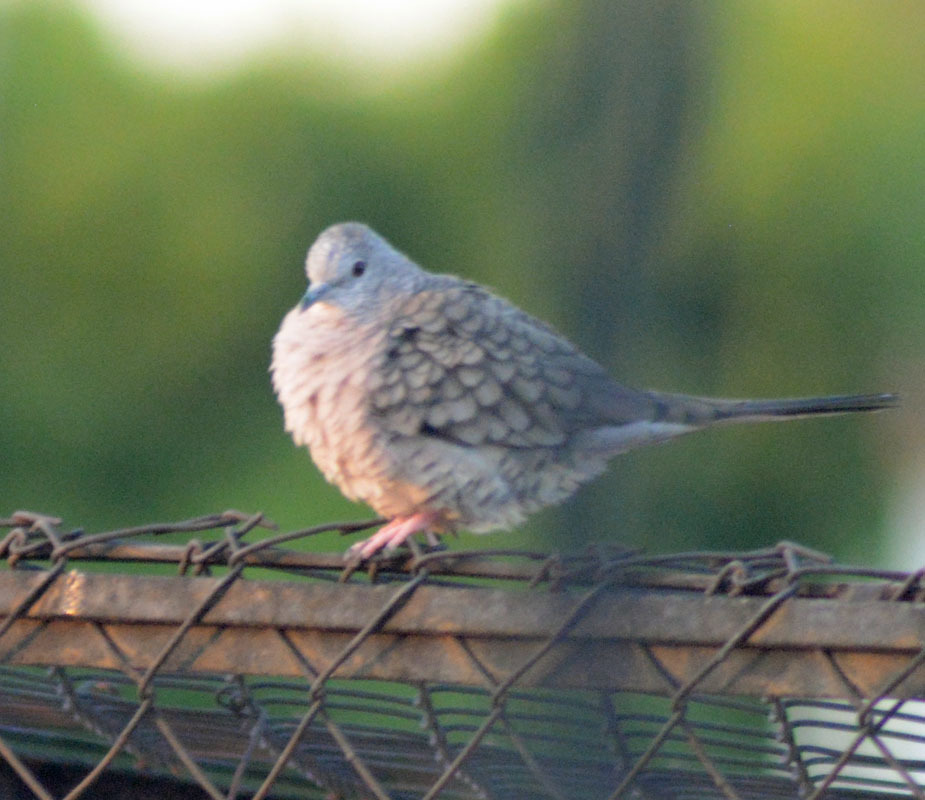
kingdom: Animalia
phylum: Chordata
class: Aves
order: Columbiformes
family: Columbidae
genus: Columbina
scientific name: Columbina inca
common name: Inca dove
